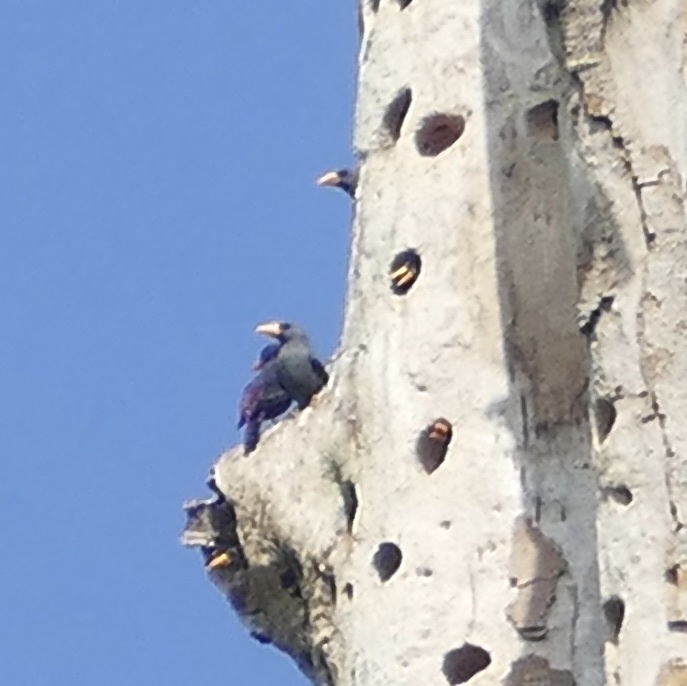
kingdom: Animalia
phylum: Chordata
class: Aves
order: Passeriformes
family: Sturnidae
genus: Scissirostrum
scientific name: Scissirostrum dubium
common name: Grosbeak starling
